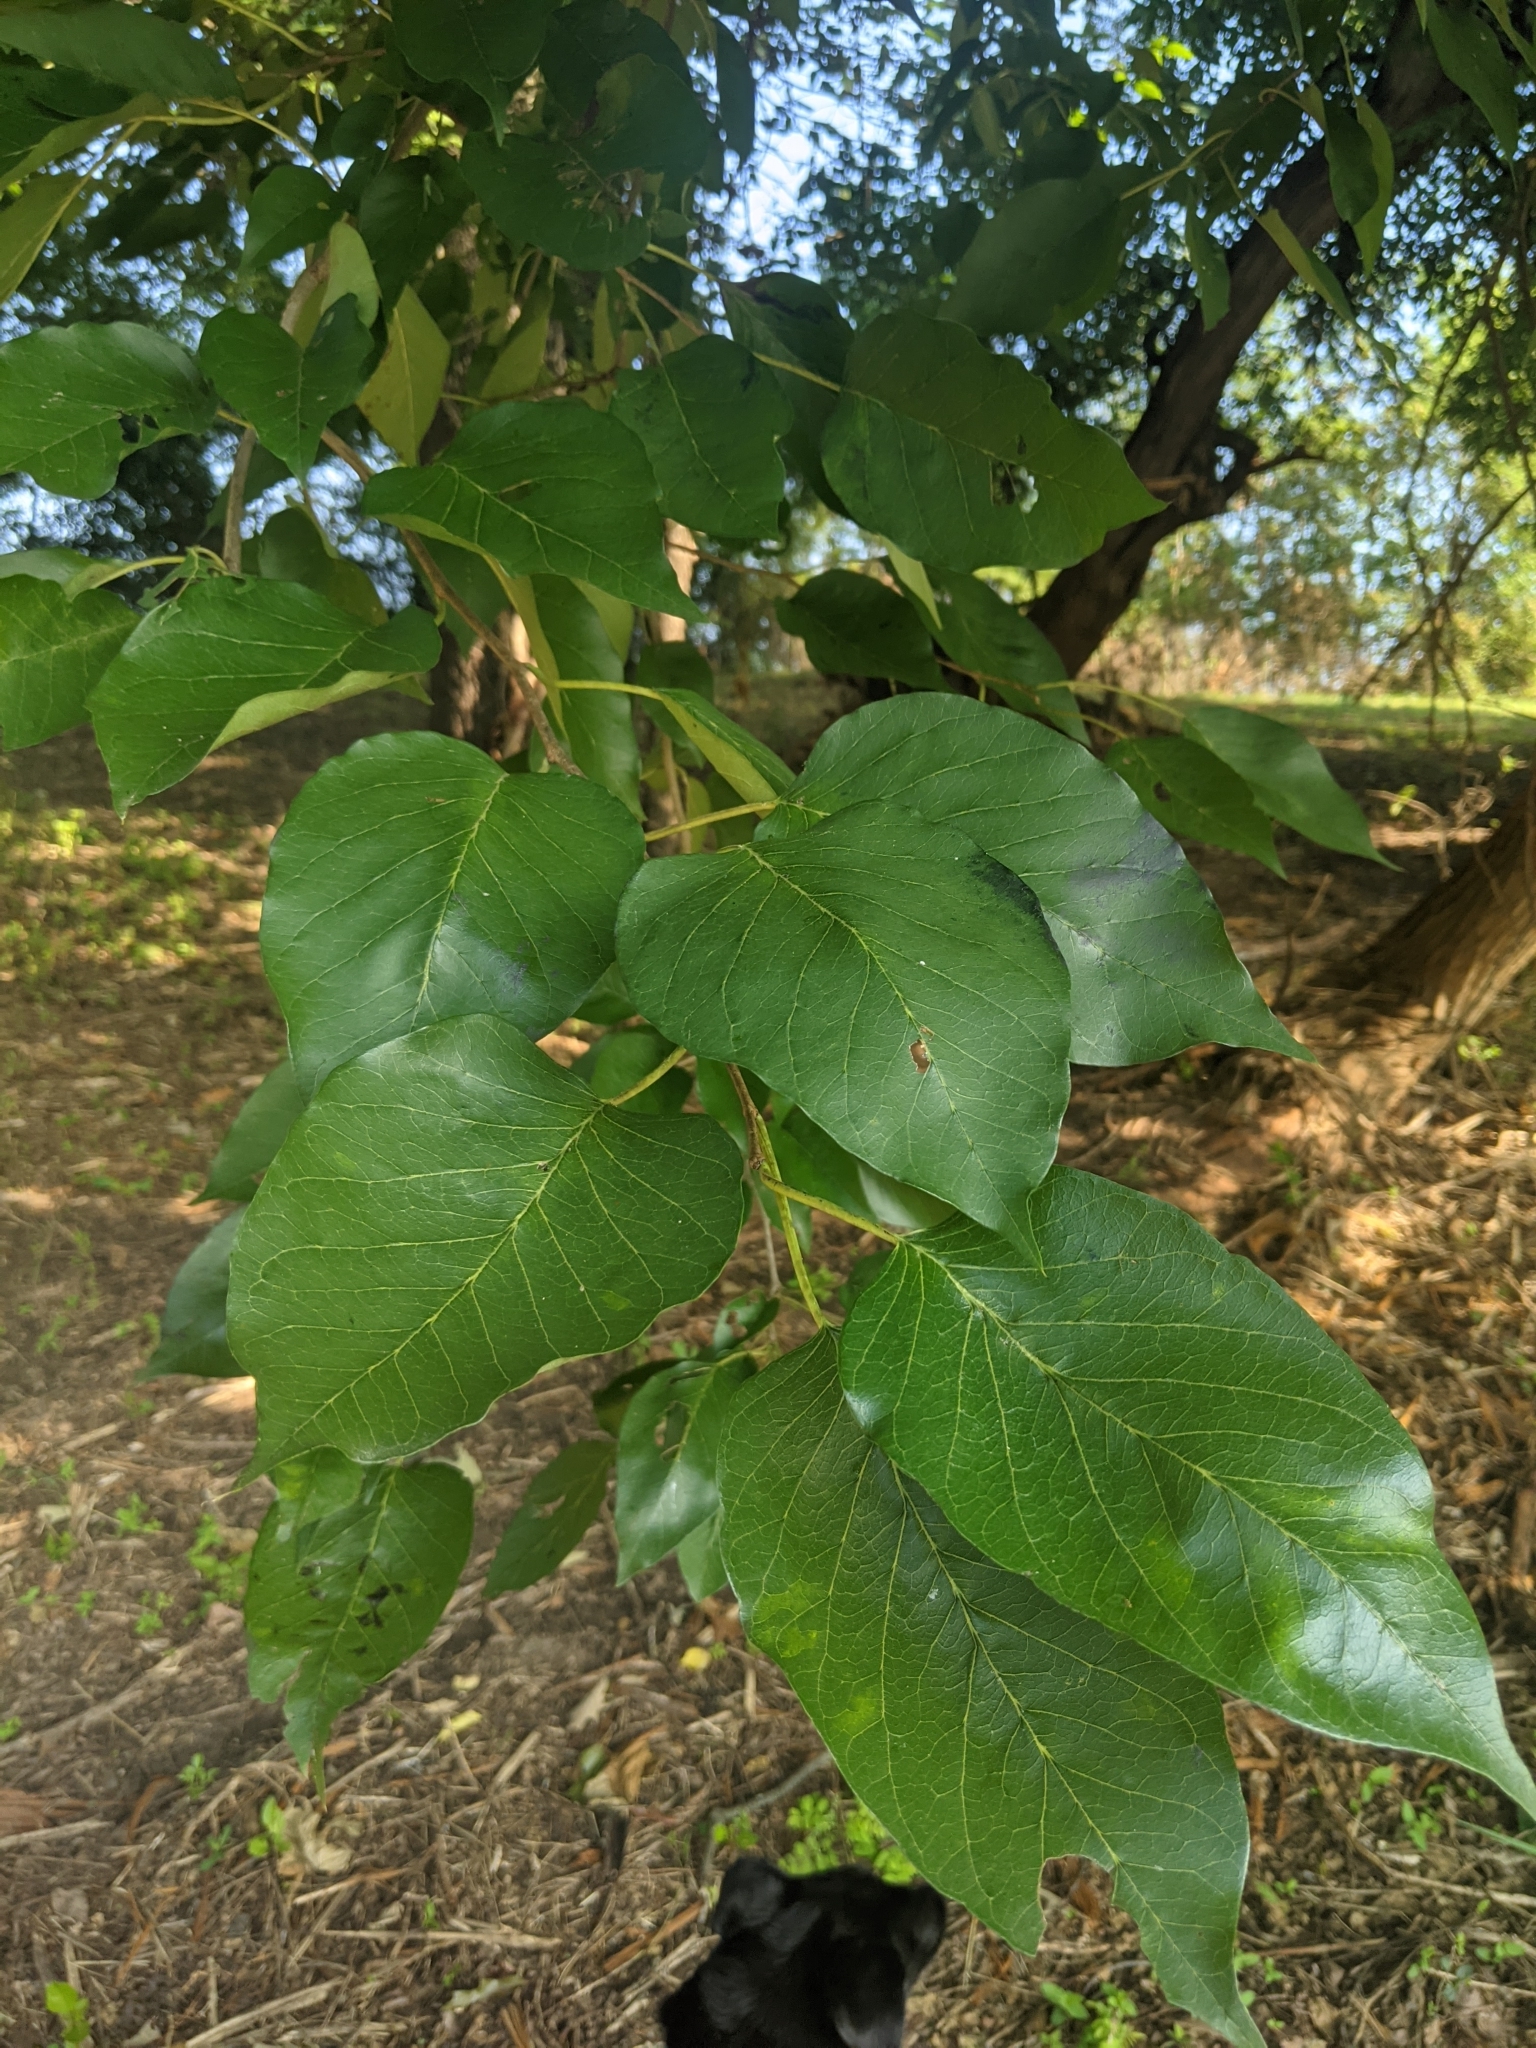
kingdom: Plantae
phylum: Tracheophyta
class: Magnoliopsida
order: Rosales
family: Moraceae
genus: Maclura
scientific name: Maclura pomifera
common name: Osage-orange
